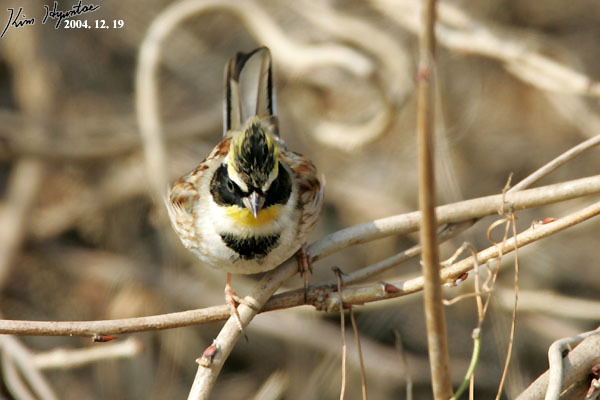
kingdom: Animalia
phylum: Chordata
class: Aves
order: Passeriformes
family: Emberizidae
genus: Emberiza
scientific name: Emberiza elegans
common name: Yellow-throated bunting
